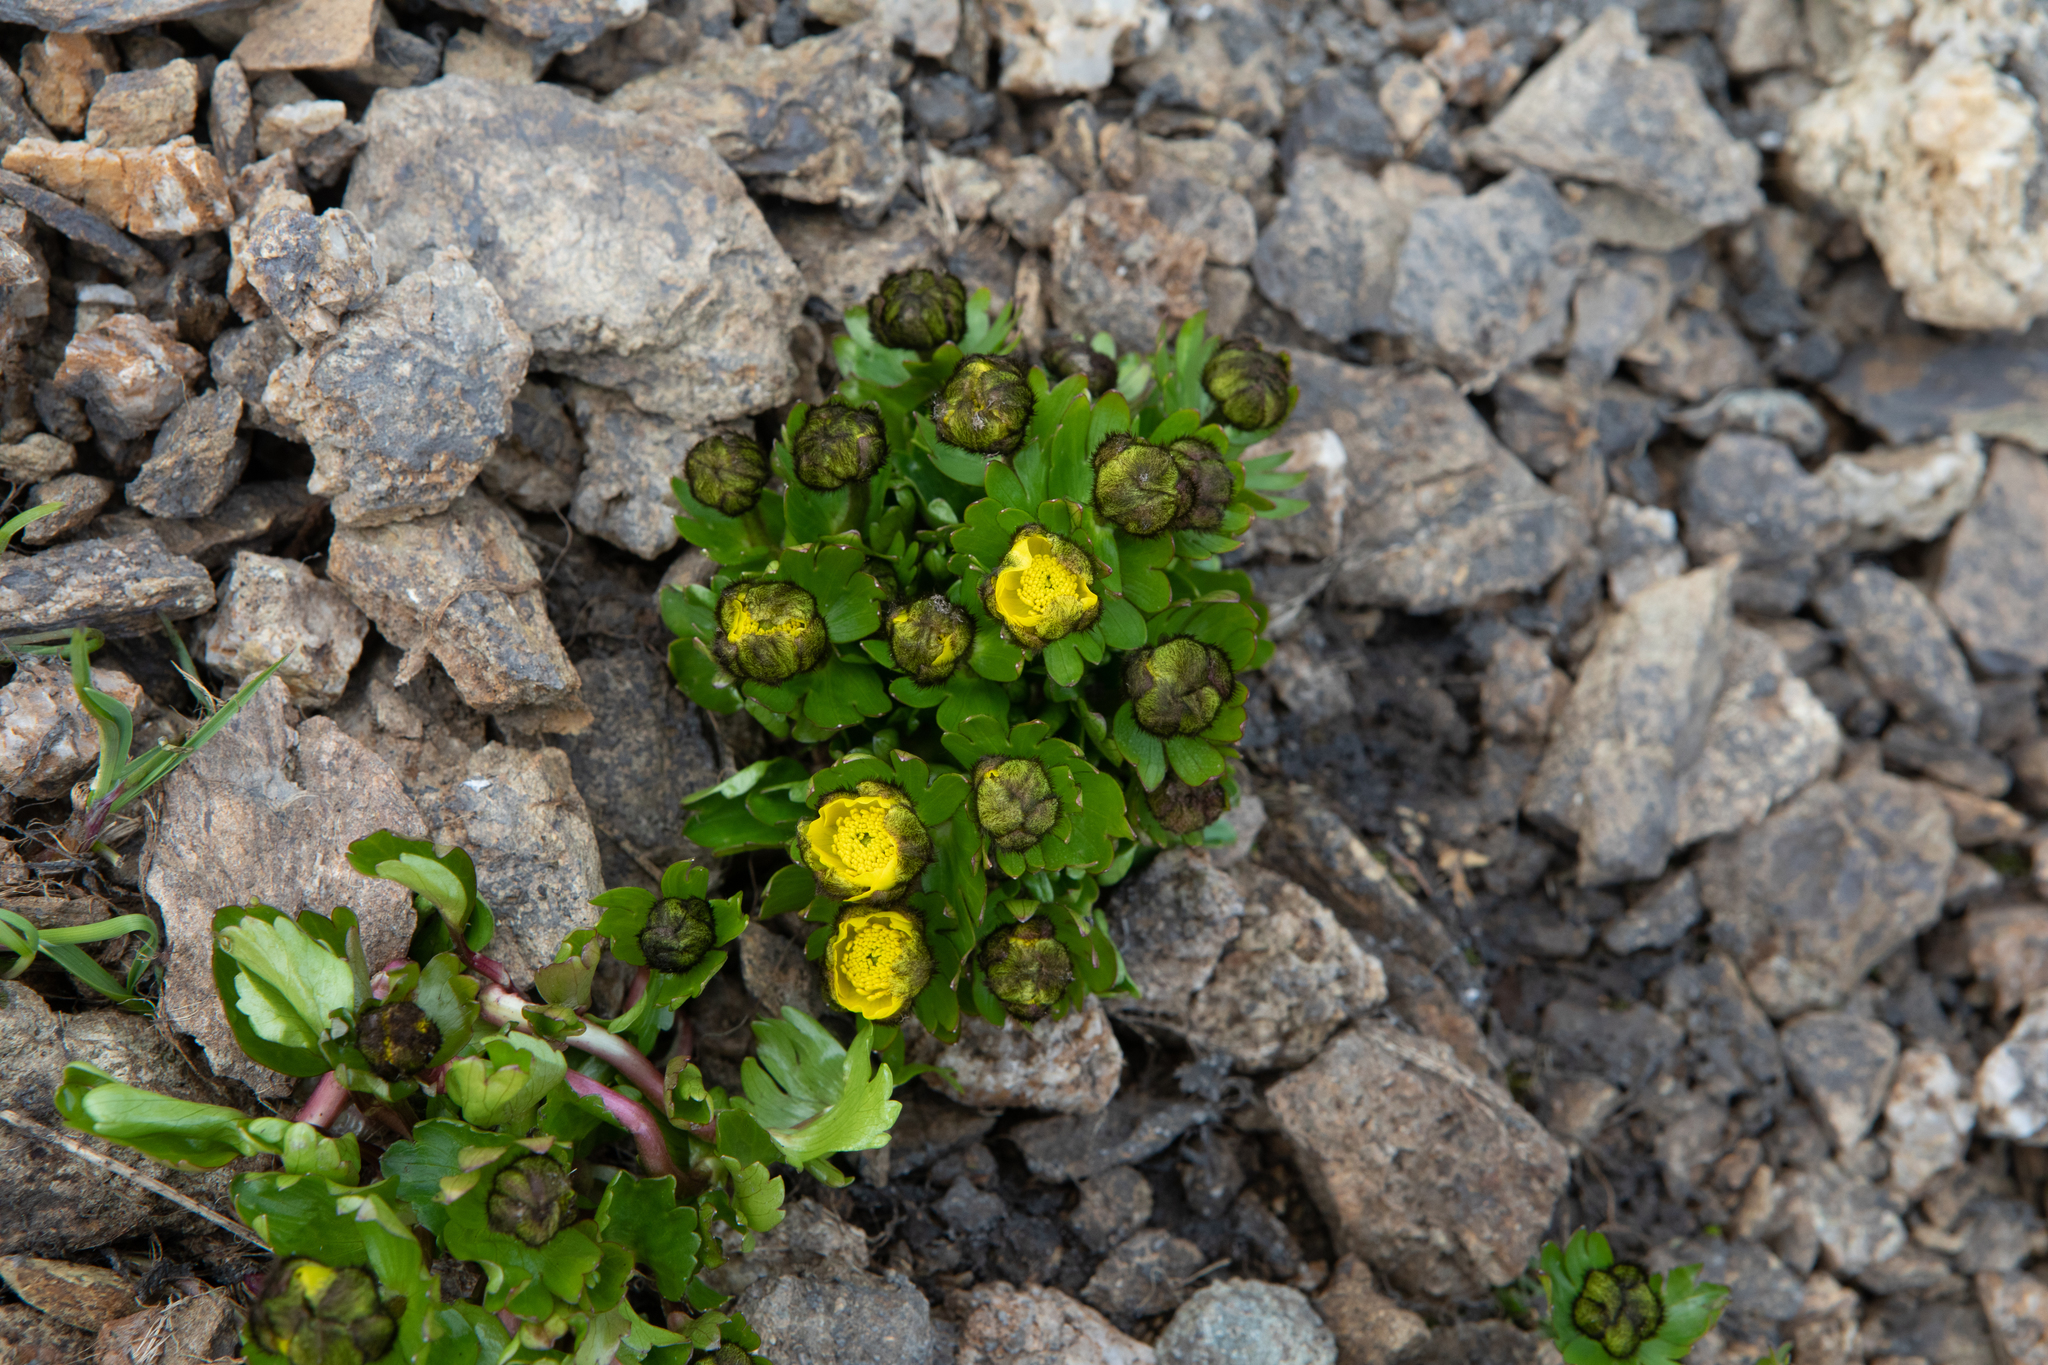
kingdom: Plantae
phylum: Tracheophyta
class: Magnoliopsida
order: Ranunculales
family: Ranunculaceae
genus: Ranunculus
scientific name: Ranunculus altaicus
